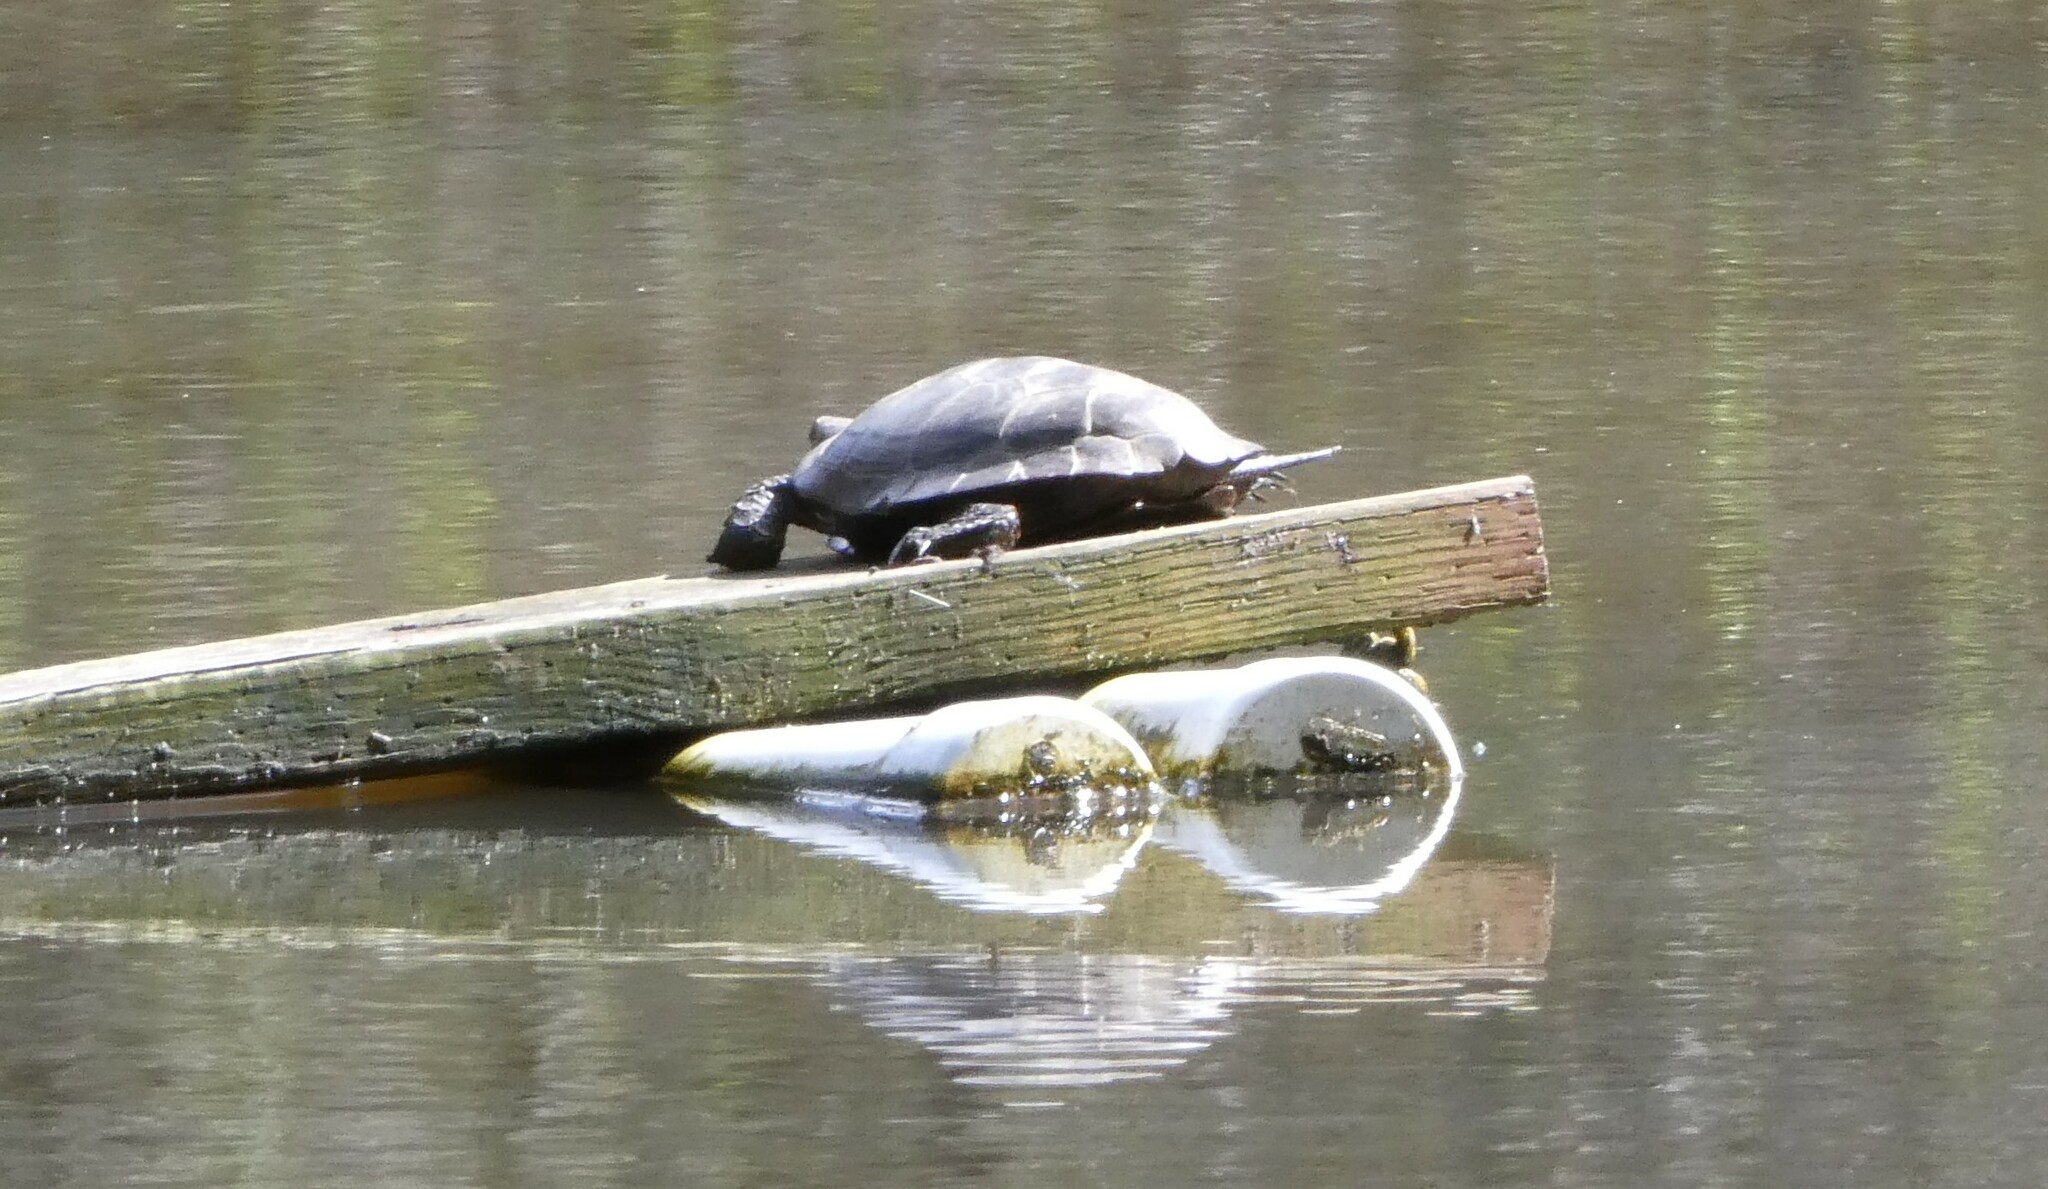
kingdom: Animalia
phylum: Chordata
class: Testudines
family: Emydidae
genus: Actinemys
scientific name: Actinemys marmorata
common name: Western pond turtle
